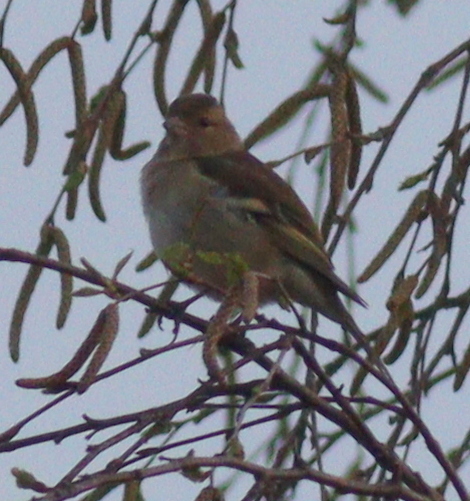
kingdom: Animalia
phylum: Chordata
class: Aves
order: Passeriformes
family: Fringillidae
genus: Fringilla
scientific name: Fringilla coelebs
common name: Common chaffinch
